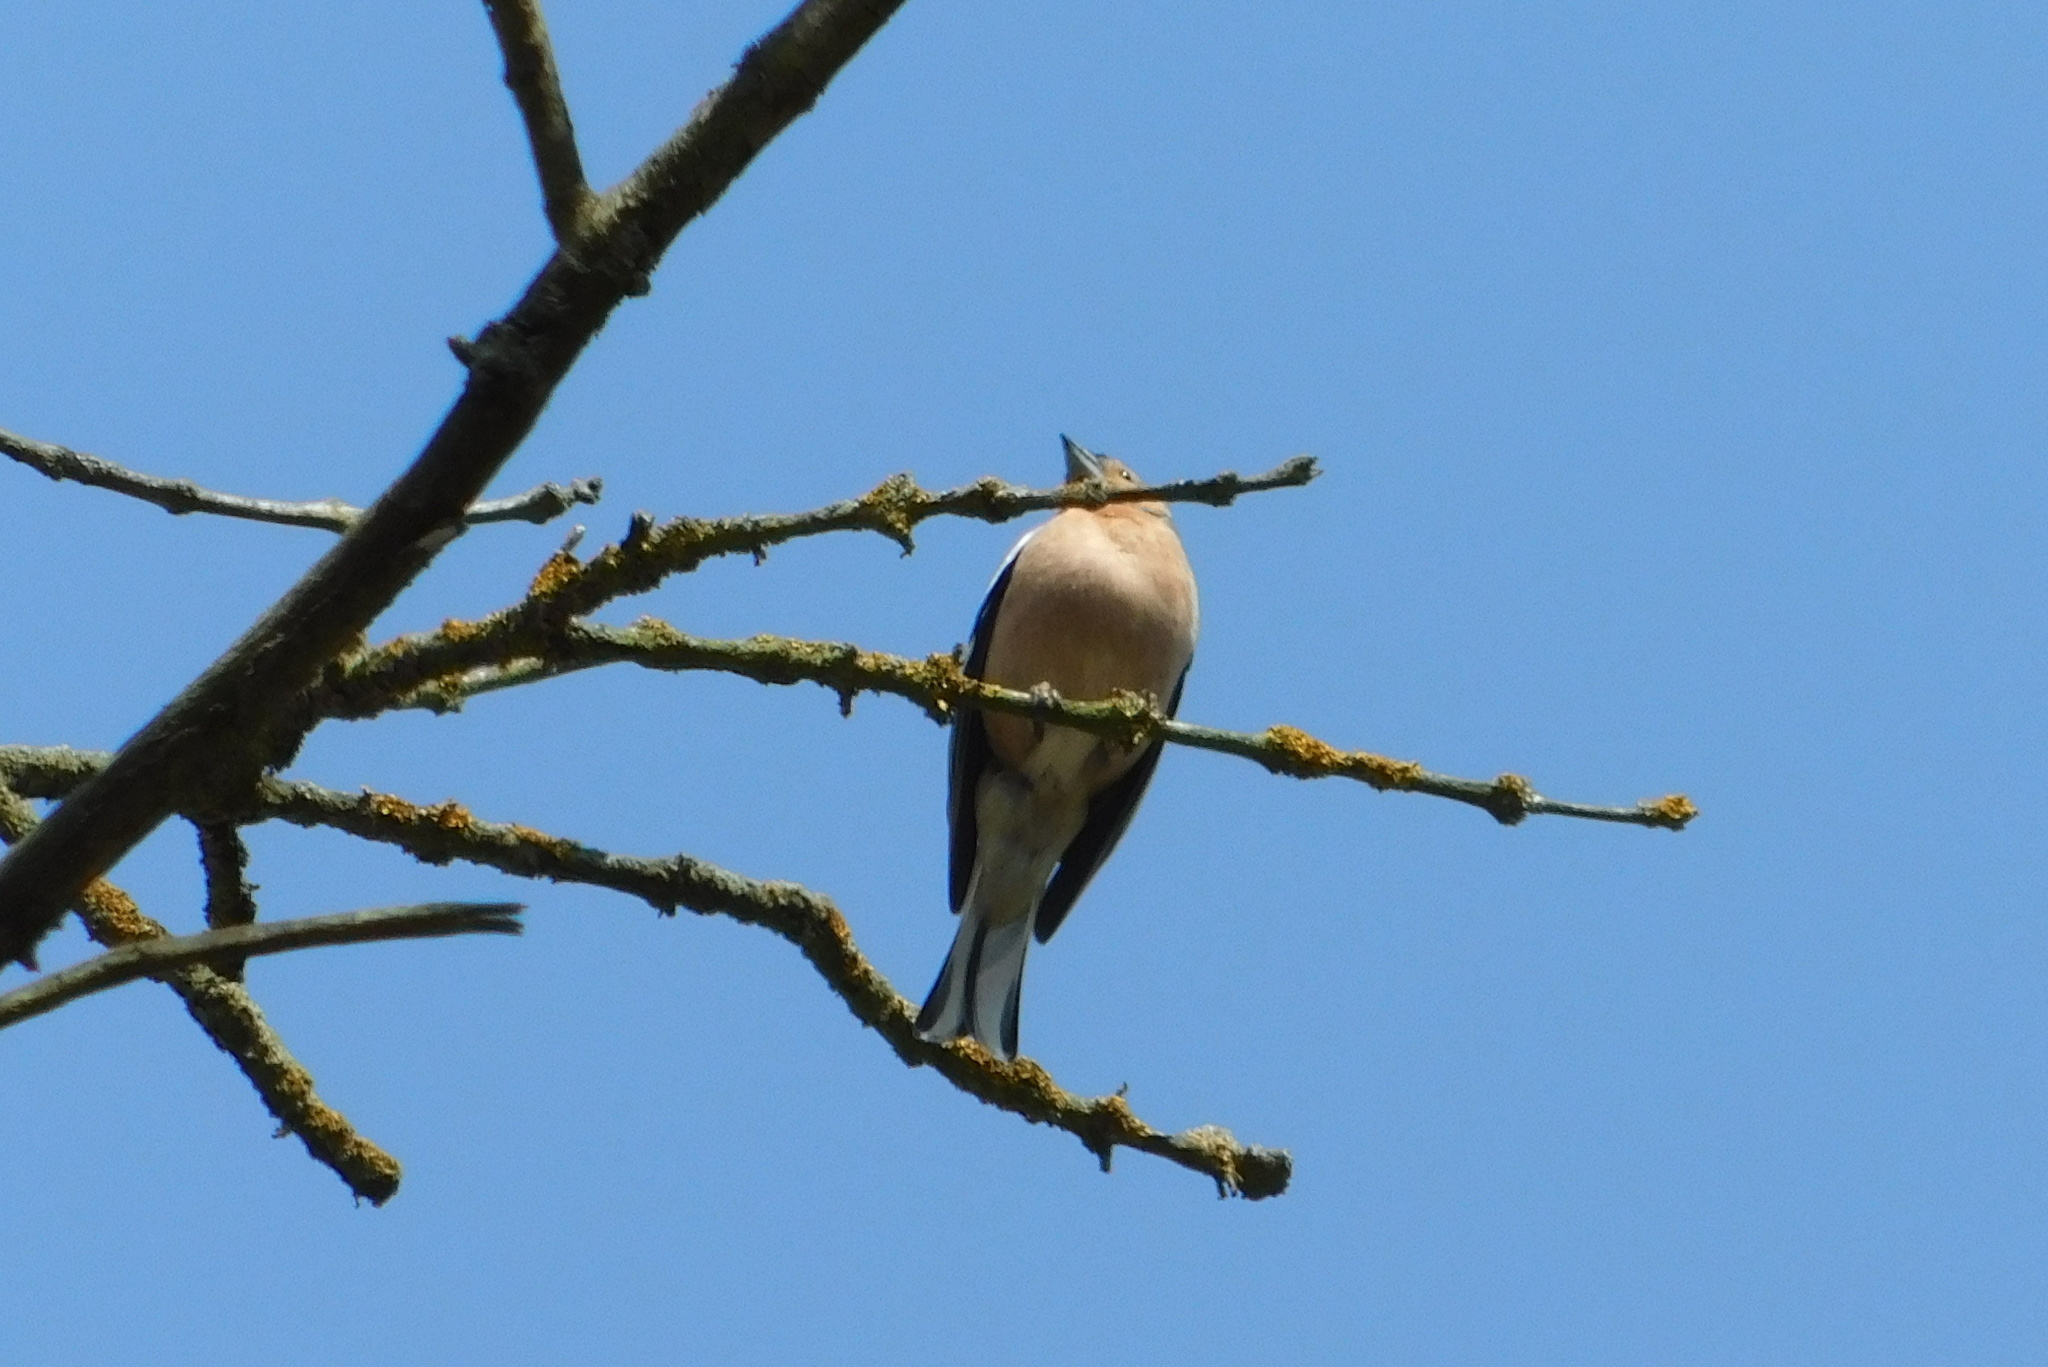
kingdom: Animalia
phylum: Chordata
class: Aves
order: Passeriformes
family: Fringillidae
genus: Fringilla
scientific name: Fringilla coelebs
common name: Common chaffinch
